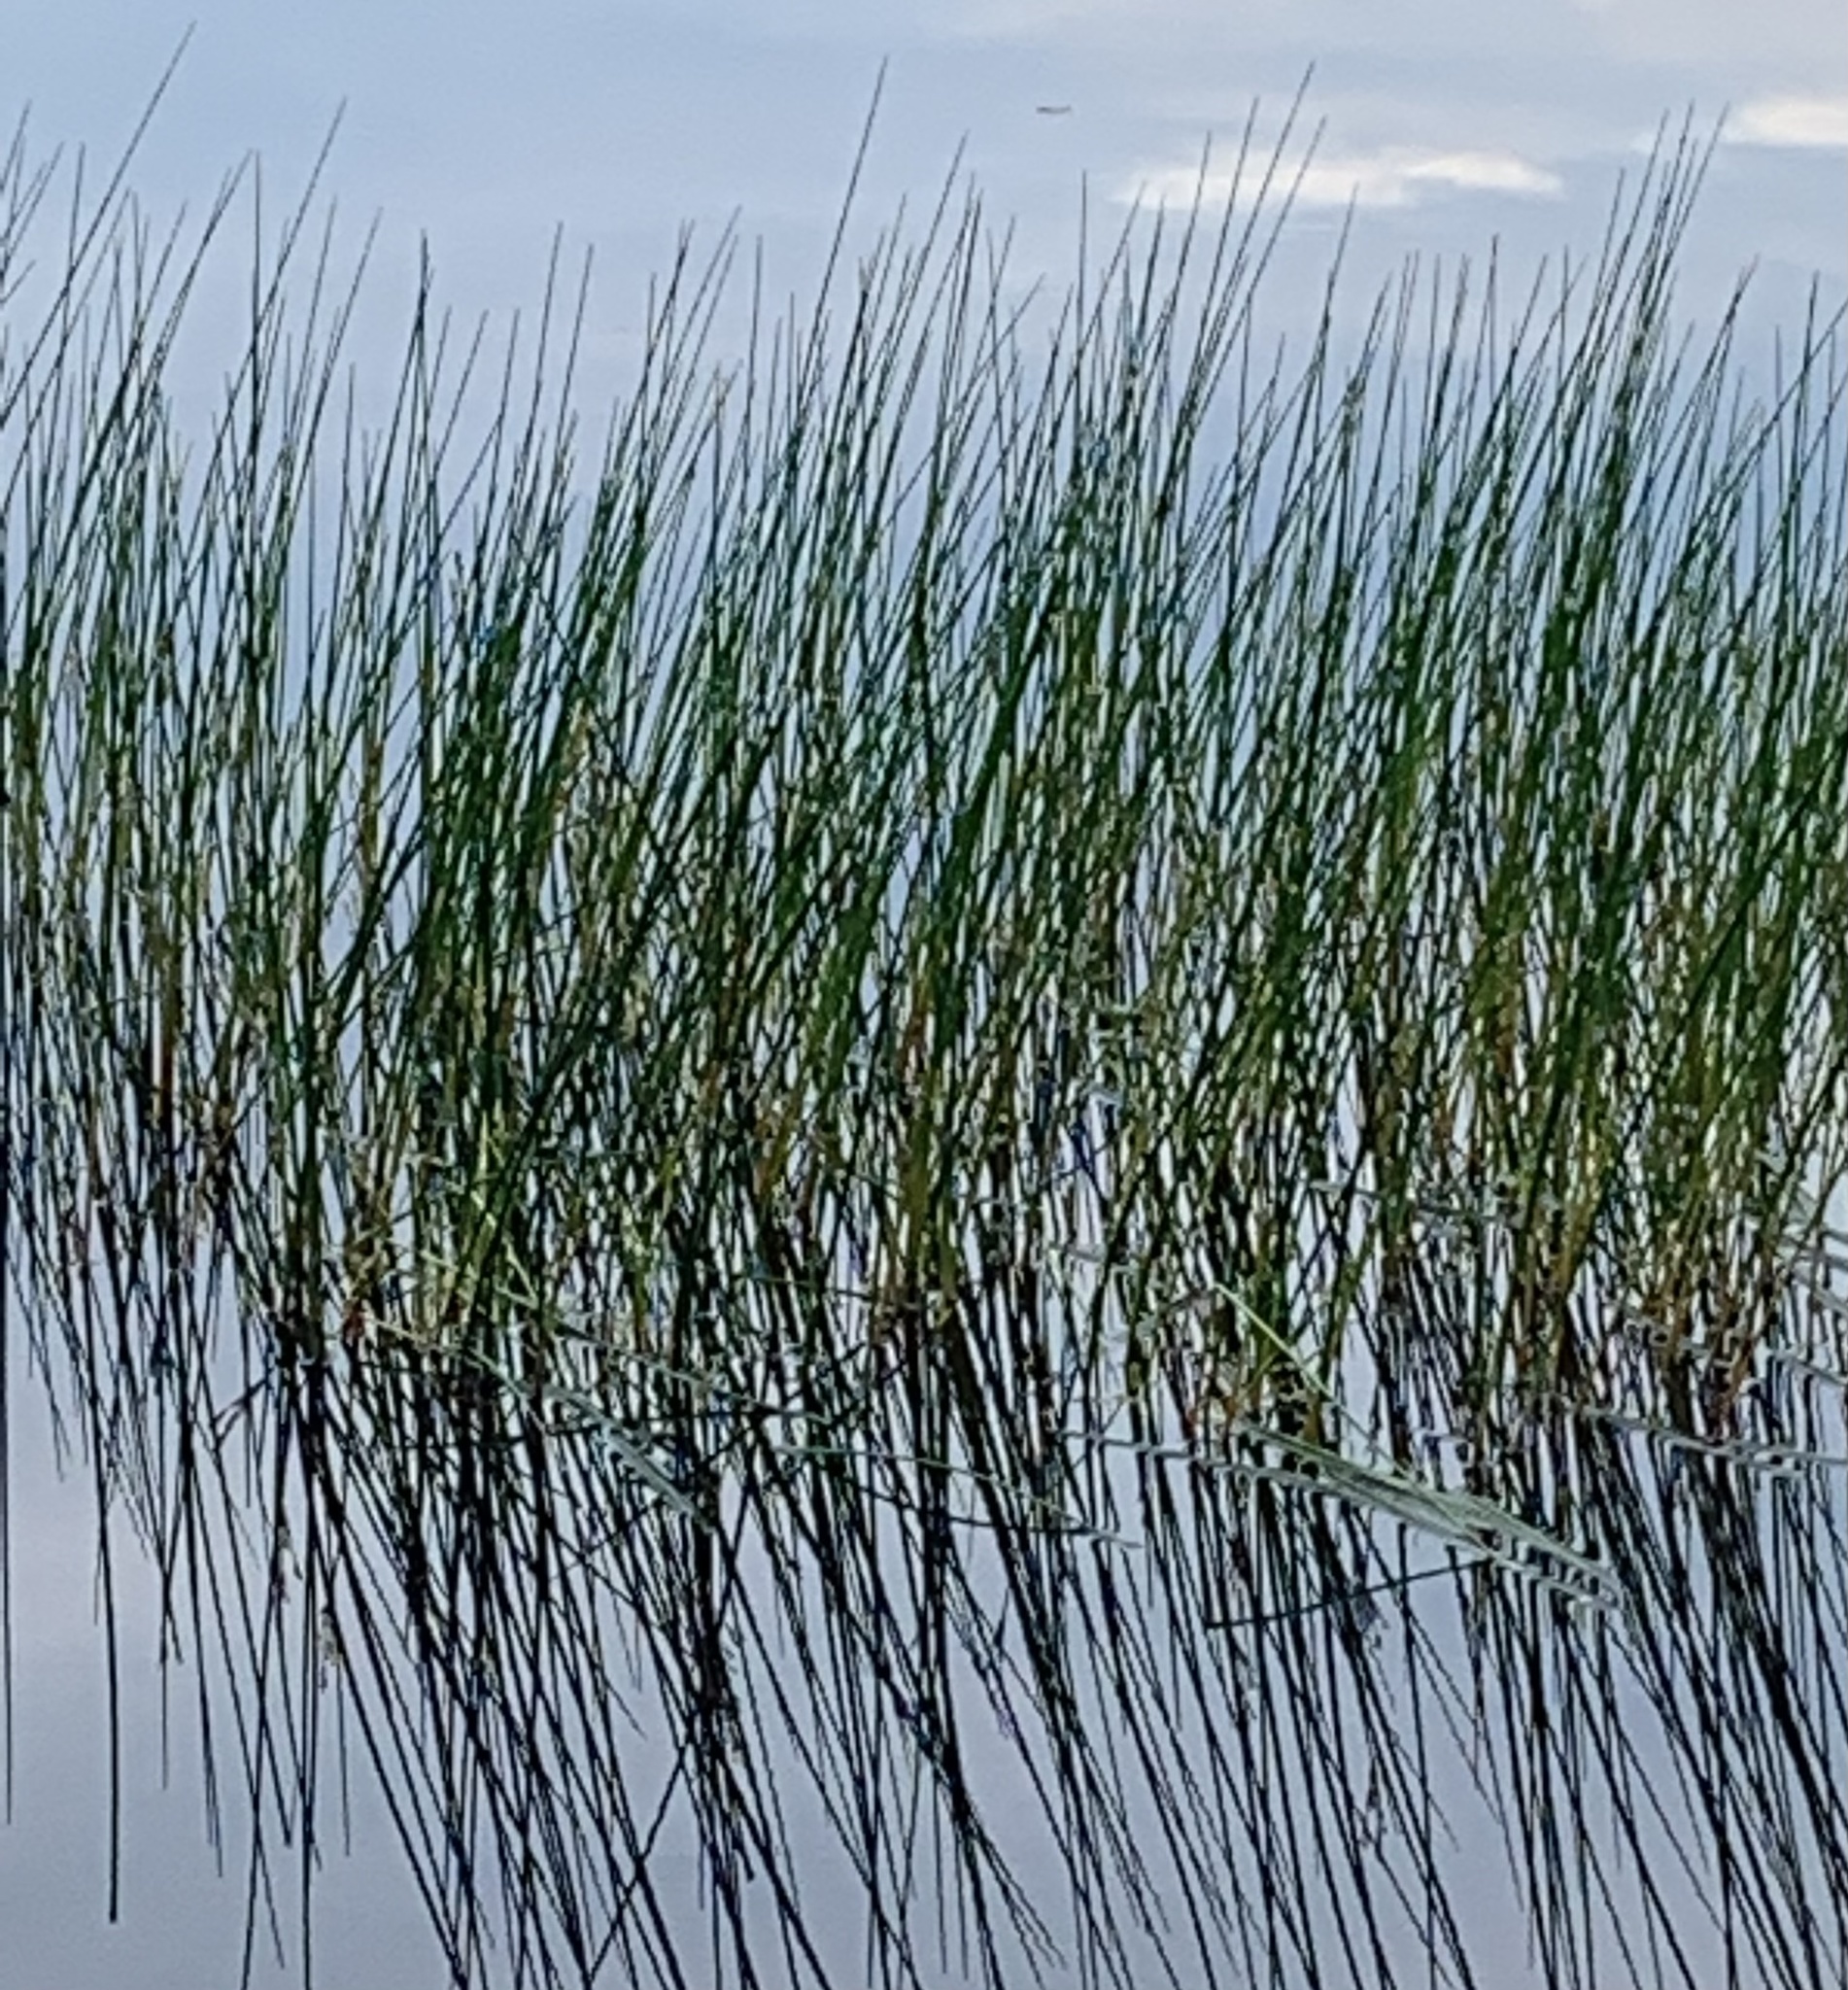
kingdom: Plantae
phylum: Tracheophyta
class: Liliopsida
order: Poales
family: Juncaceae
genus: Juncus
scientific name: Juncus militaris
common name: Bayonet rush
